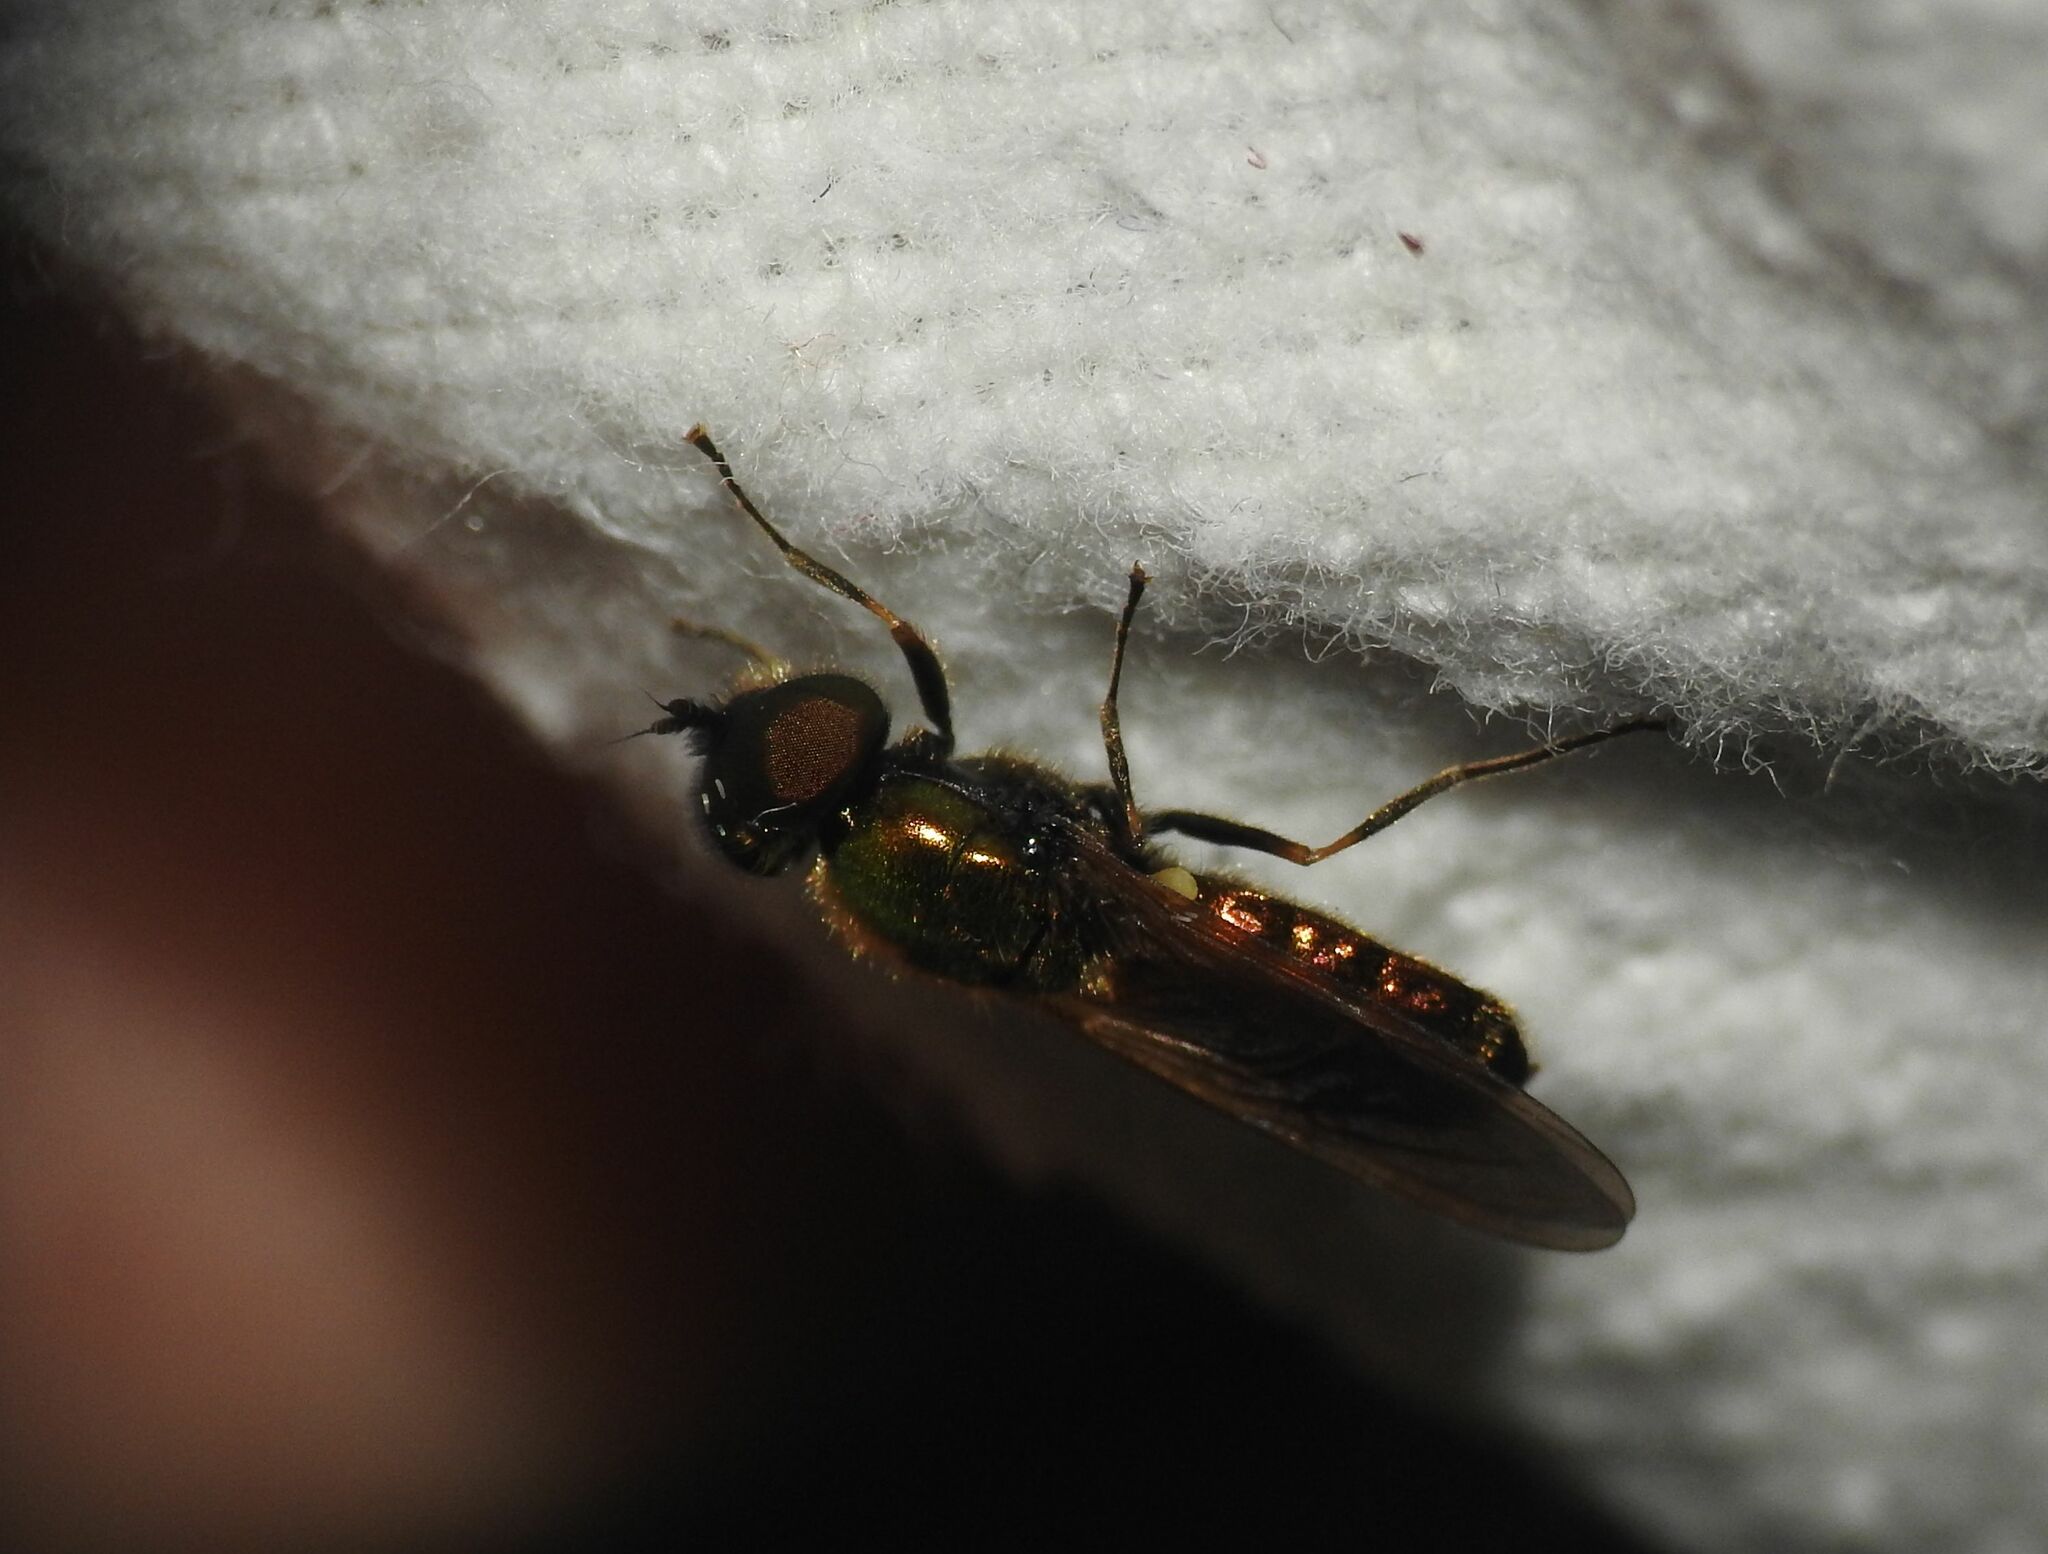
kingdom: Animalia
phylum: Arthropoda
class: Insecta
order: Diptera
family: Stratiomyidae
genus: Chloromyia
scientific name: Chloromyia formosa
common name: Soldier fly
